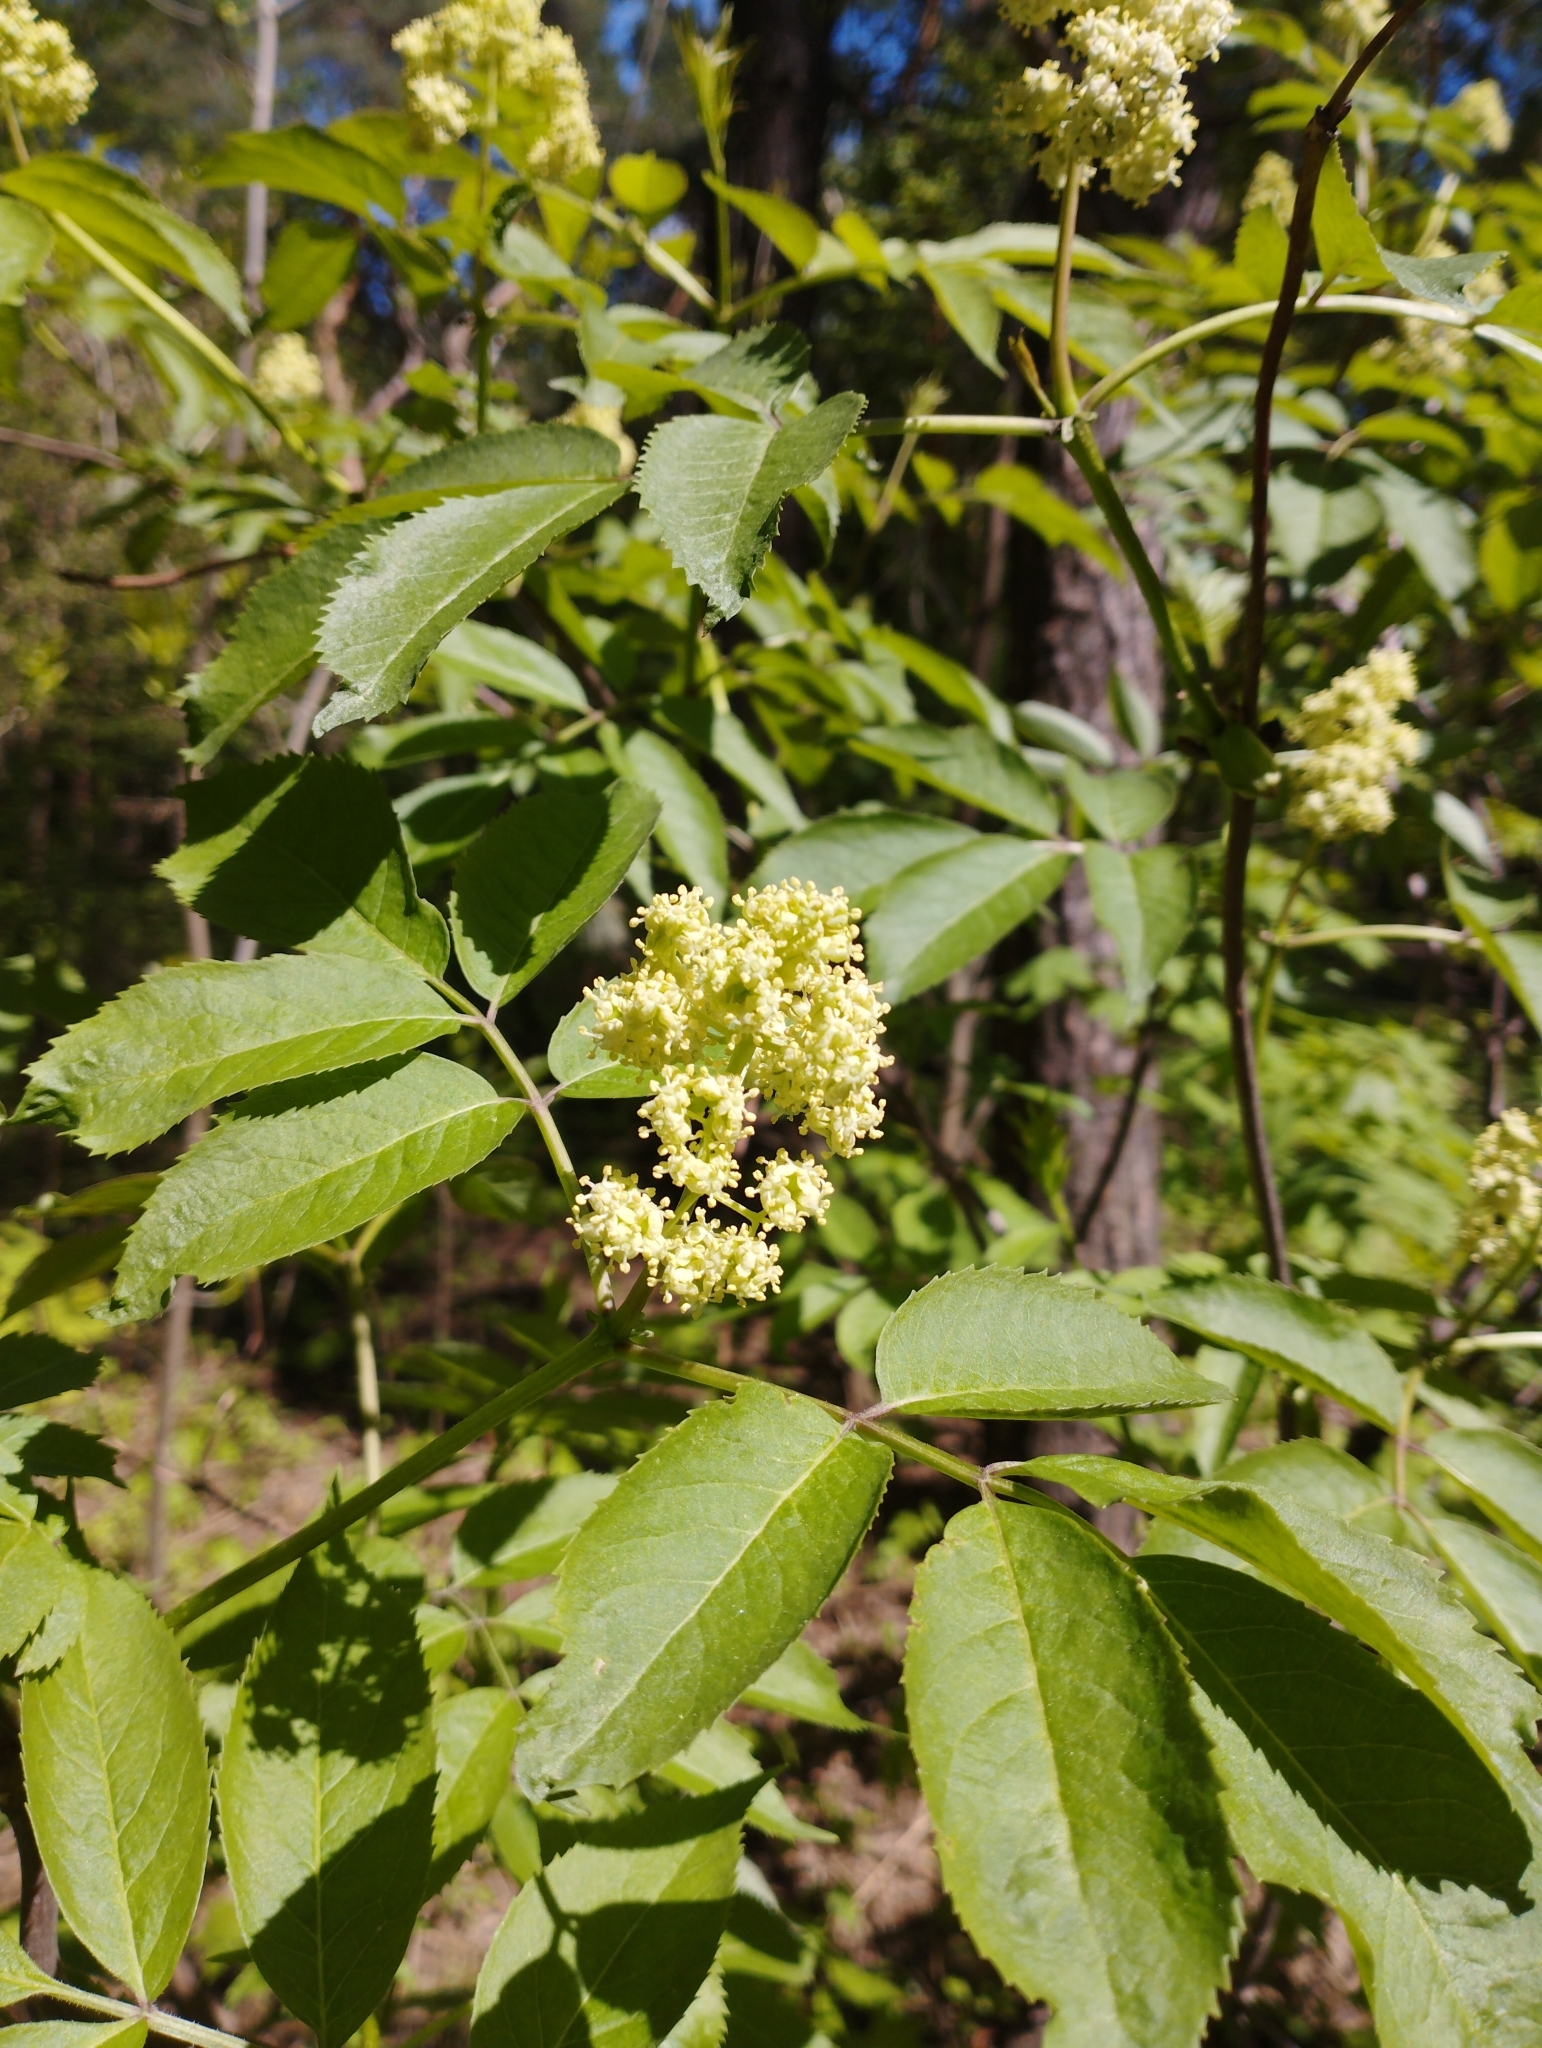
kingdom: Plantae
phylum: Tracheophyta
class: Magnoliopsida
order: Dipsacales
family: Viburnaceae
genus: Sambucus
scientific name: Sambucus racemosa
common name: Red-berried elder
